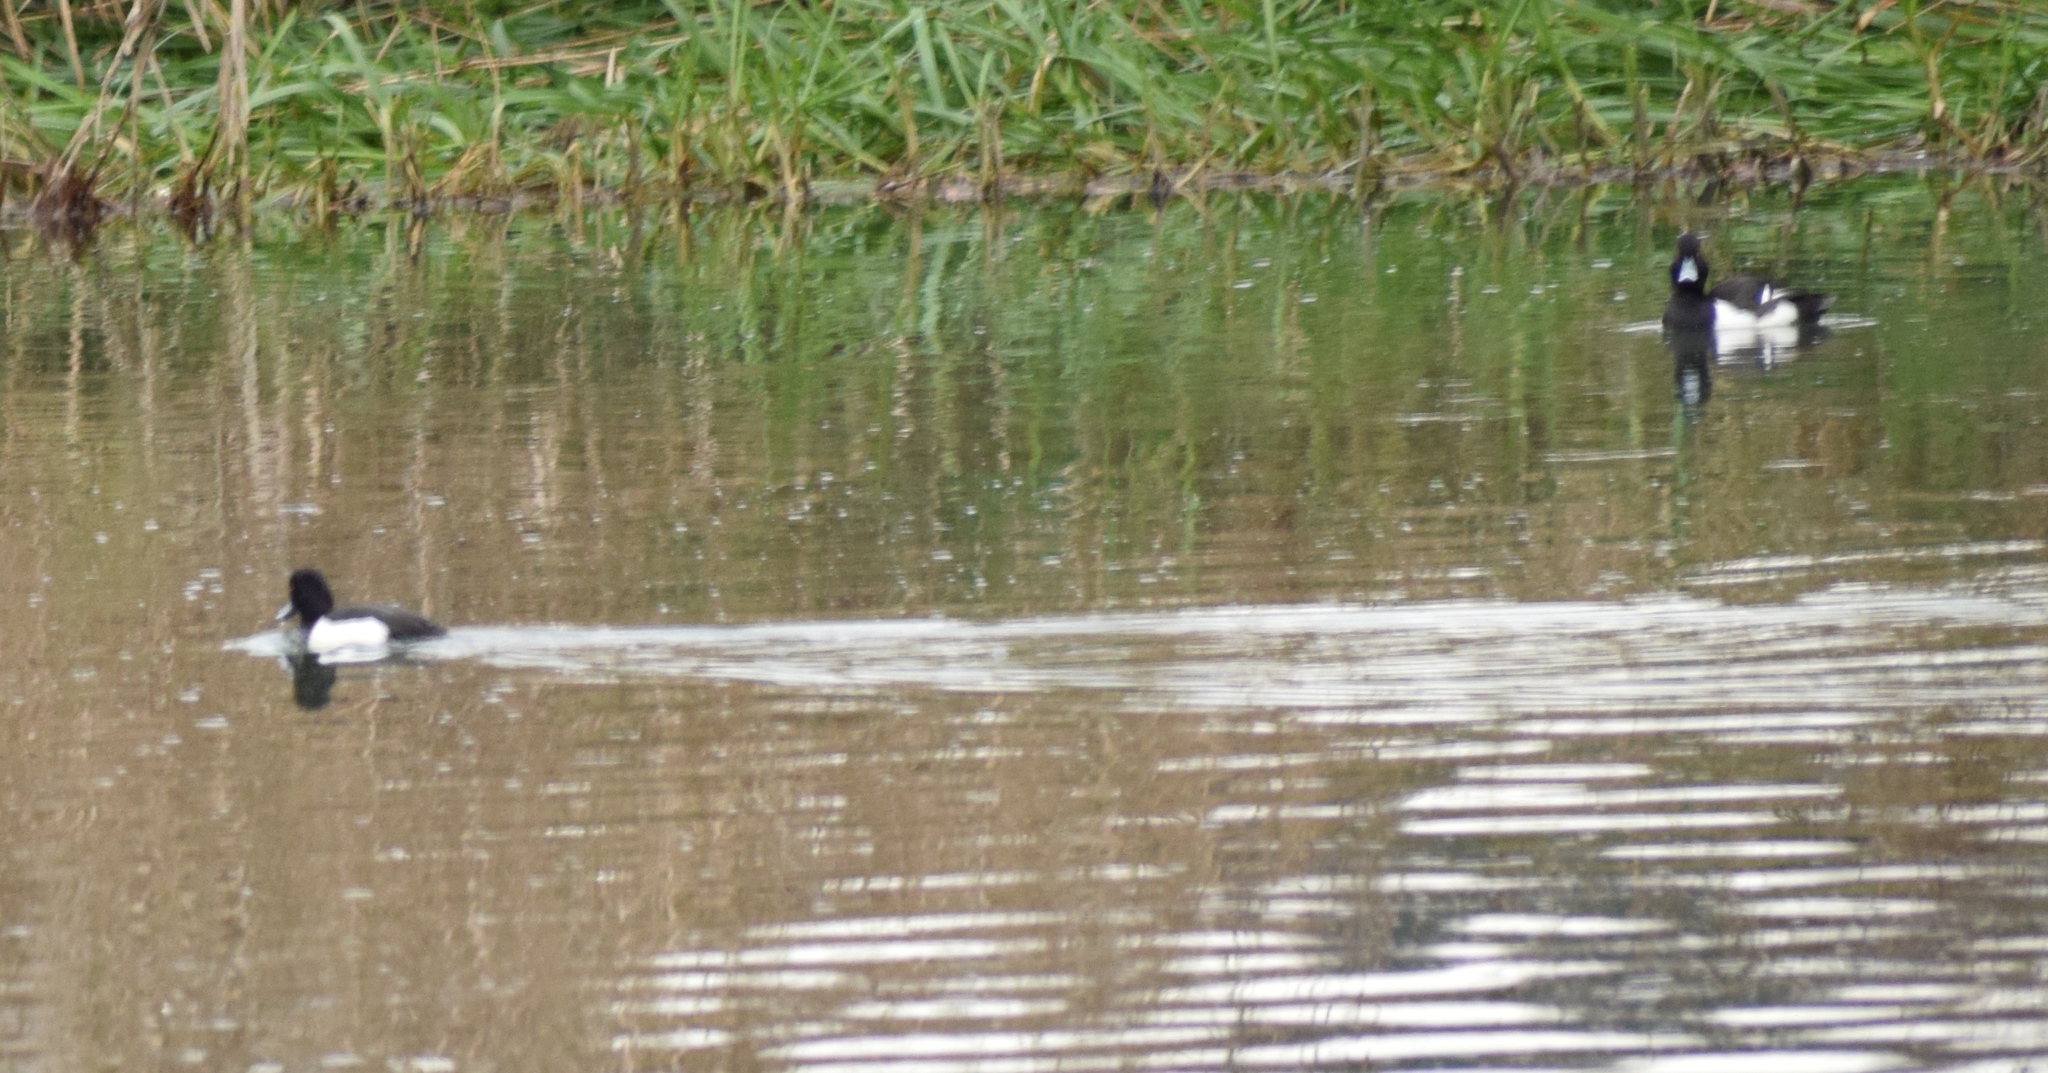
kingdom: Animalia
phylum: Chordata
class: Aves
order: Anseriformes
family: Anatidae
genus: Aythya
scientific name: Aythya fuligula
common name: Tufted duck
